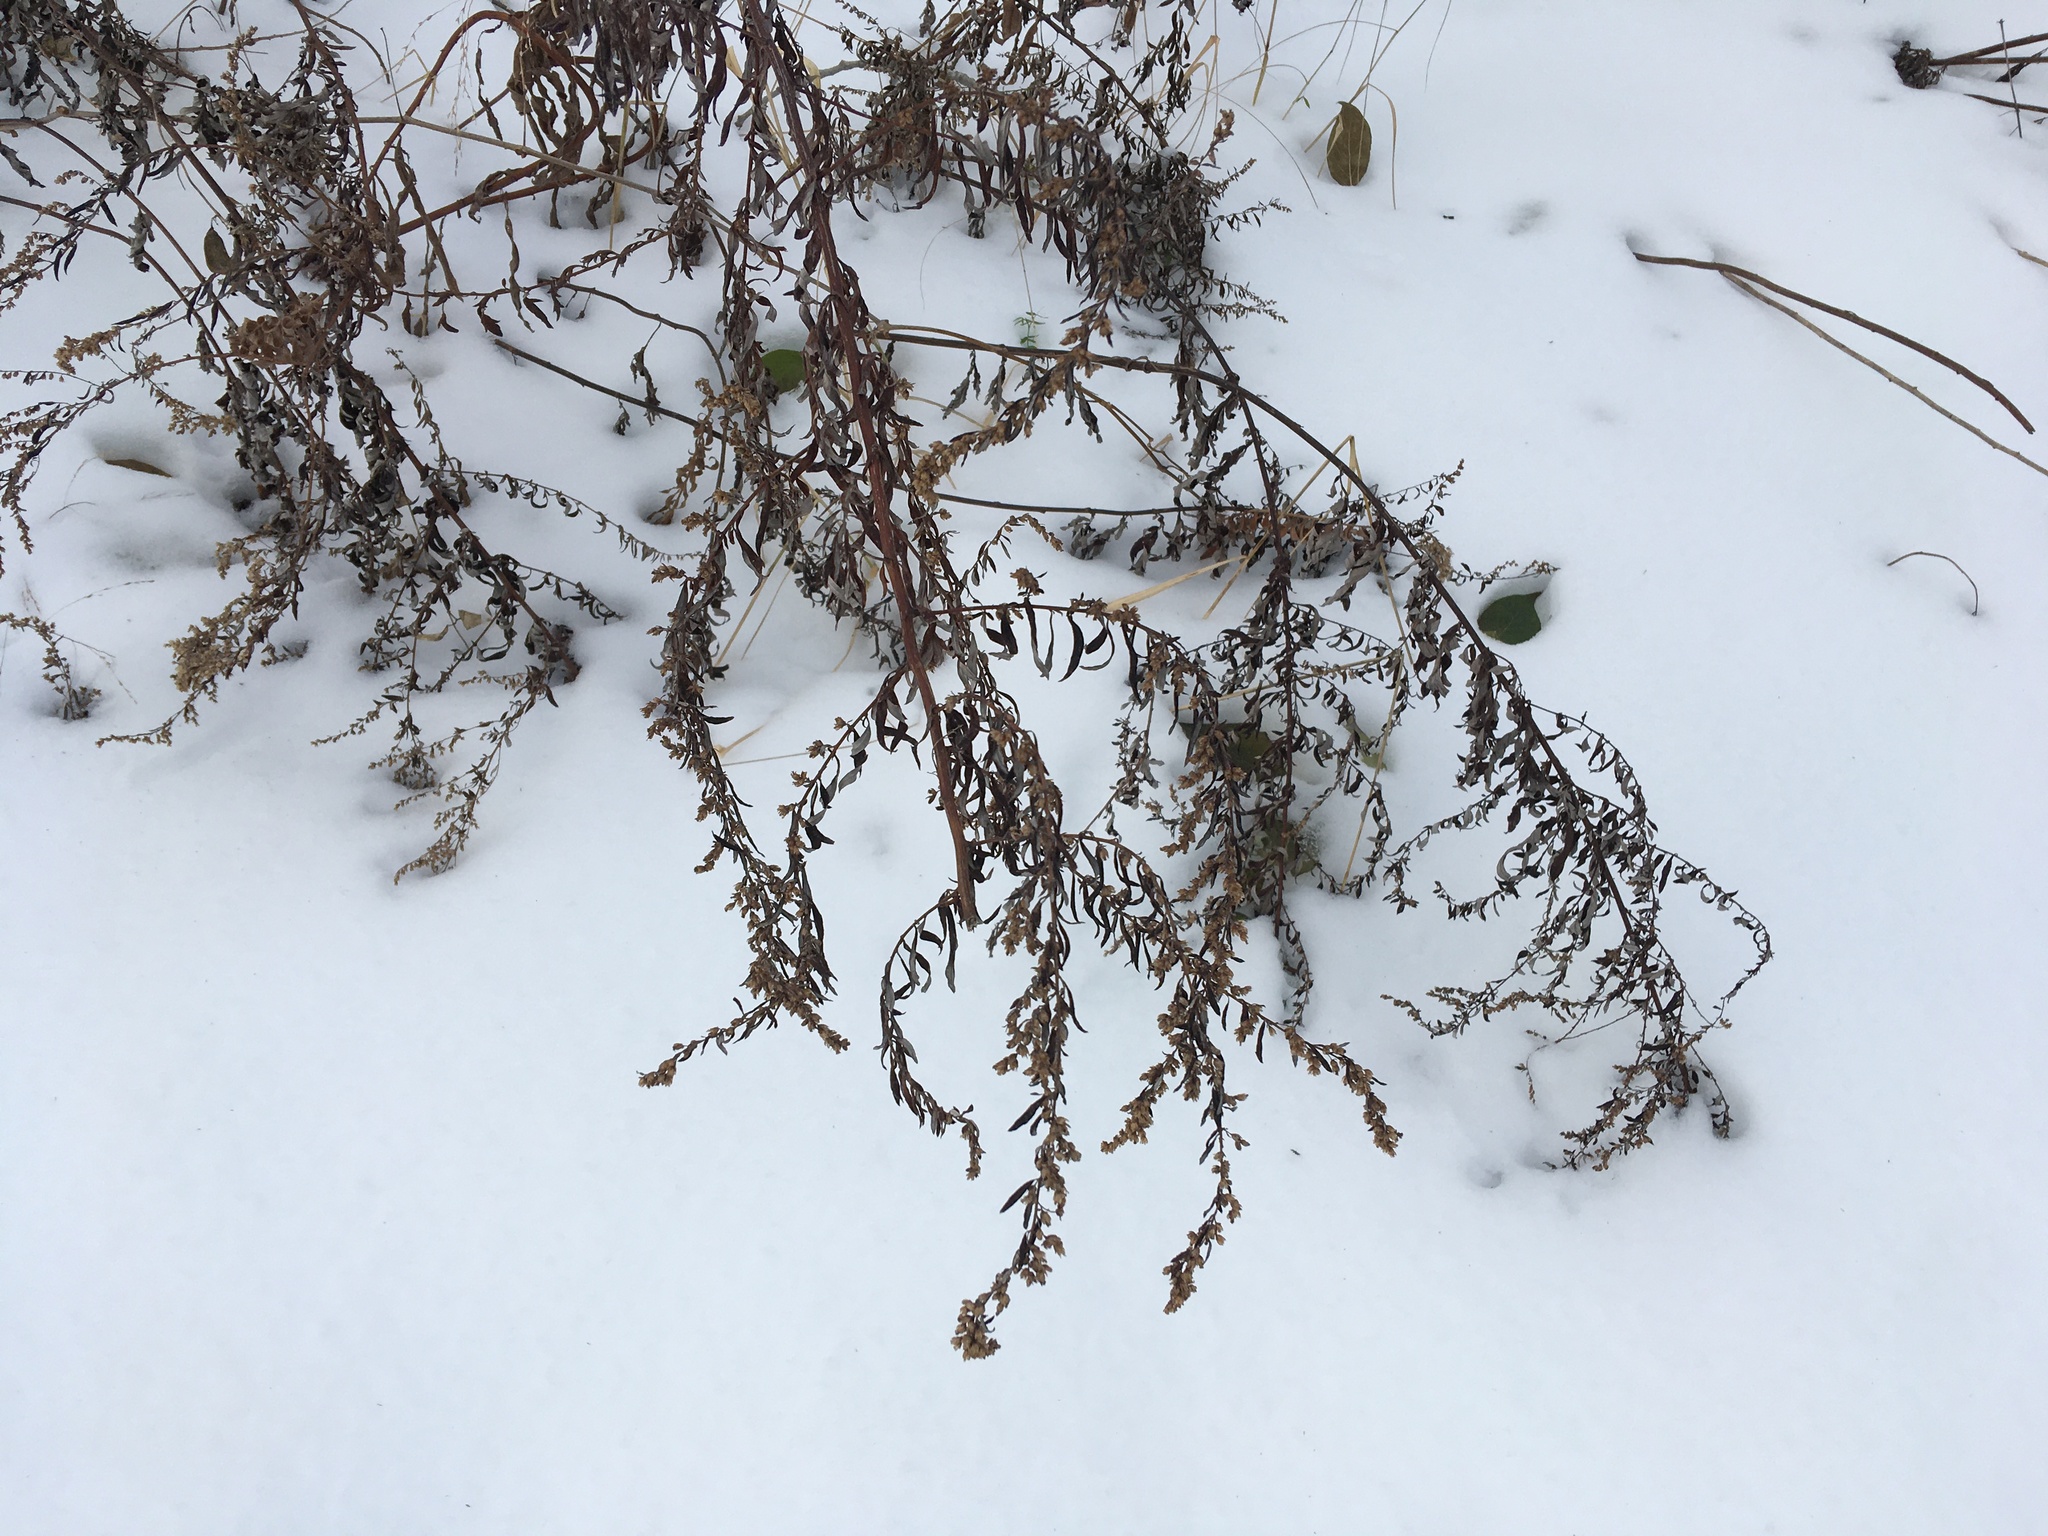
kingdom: Plantae
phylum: Tracheophyta
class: Magnoliopsida
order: Asterales
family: Asteraceae
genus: Artemisia
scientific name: Artemisia vulgaris
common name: Mugwort
